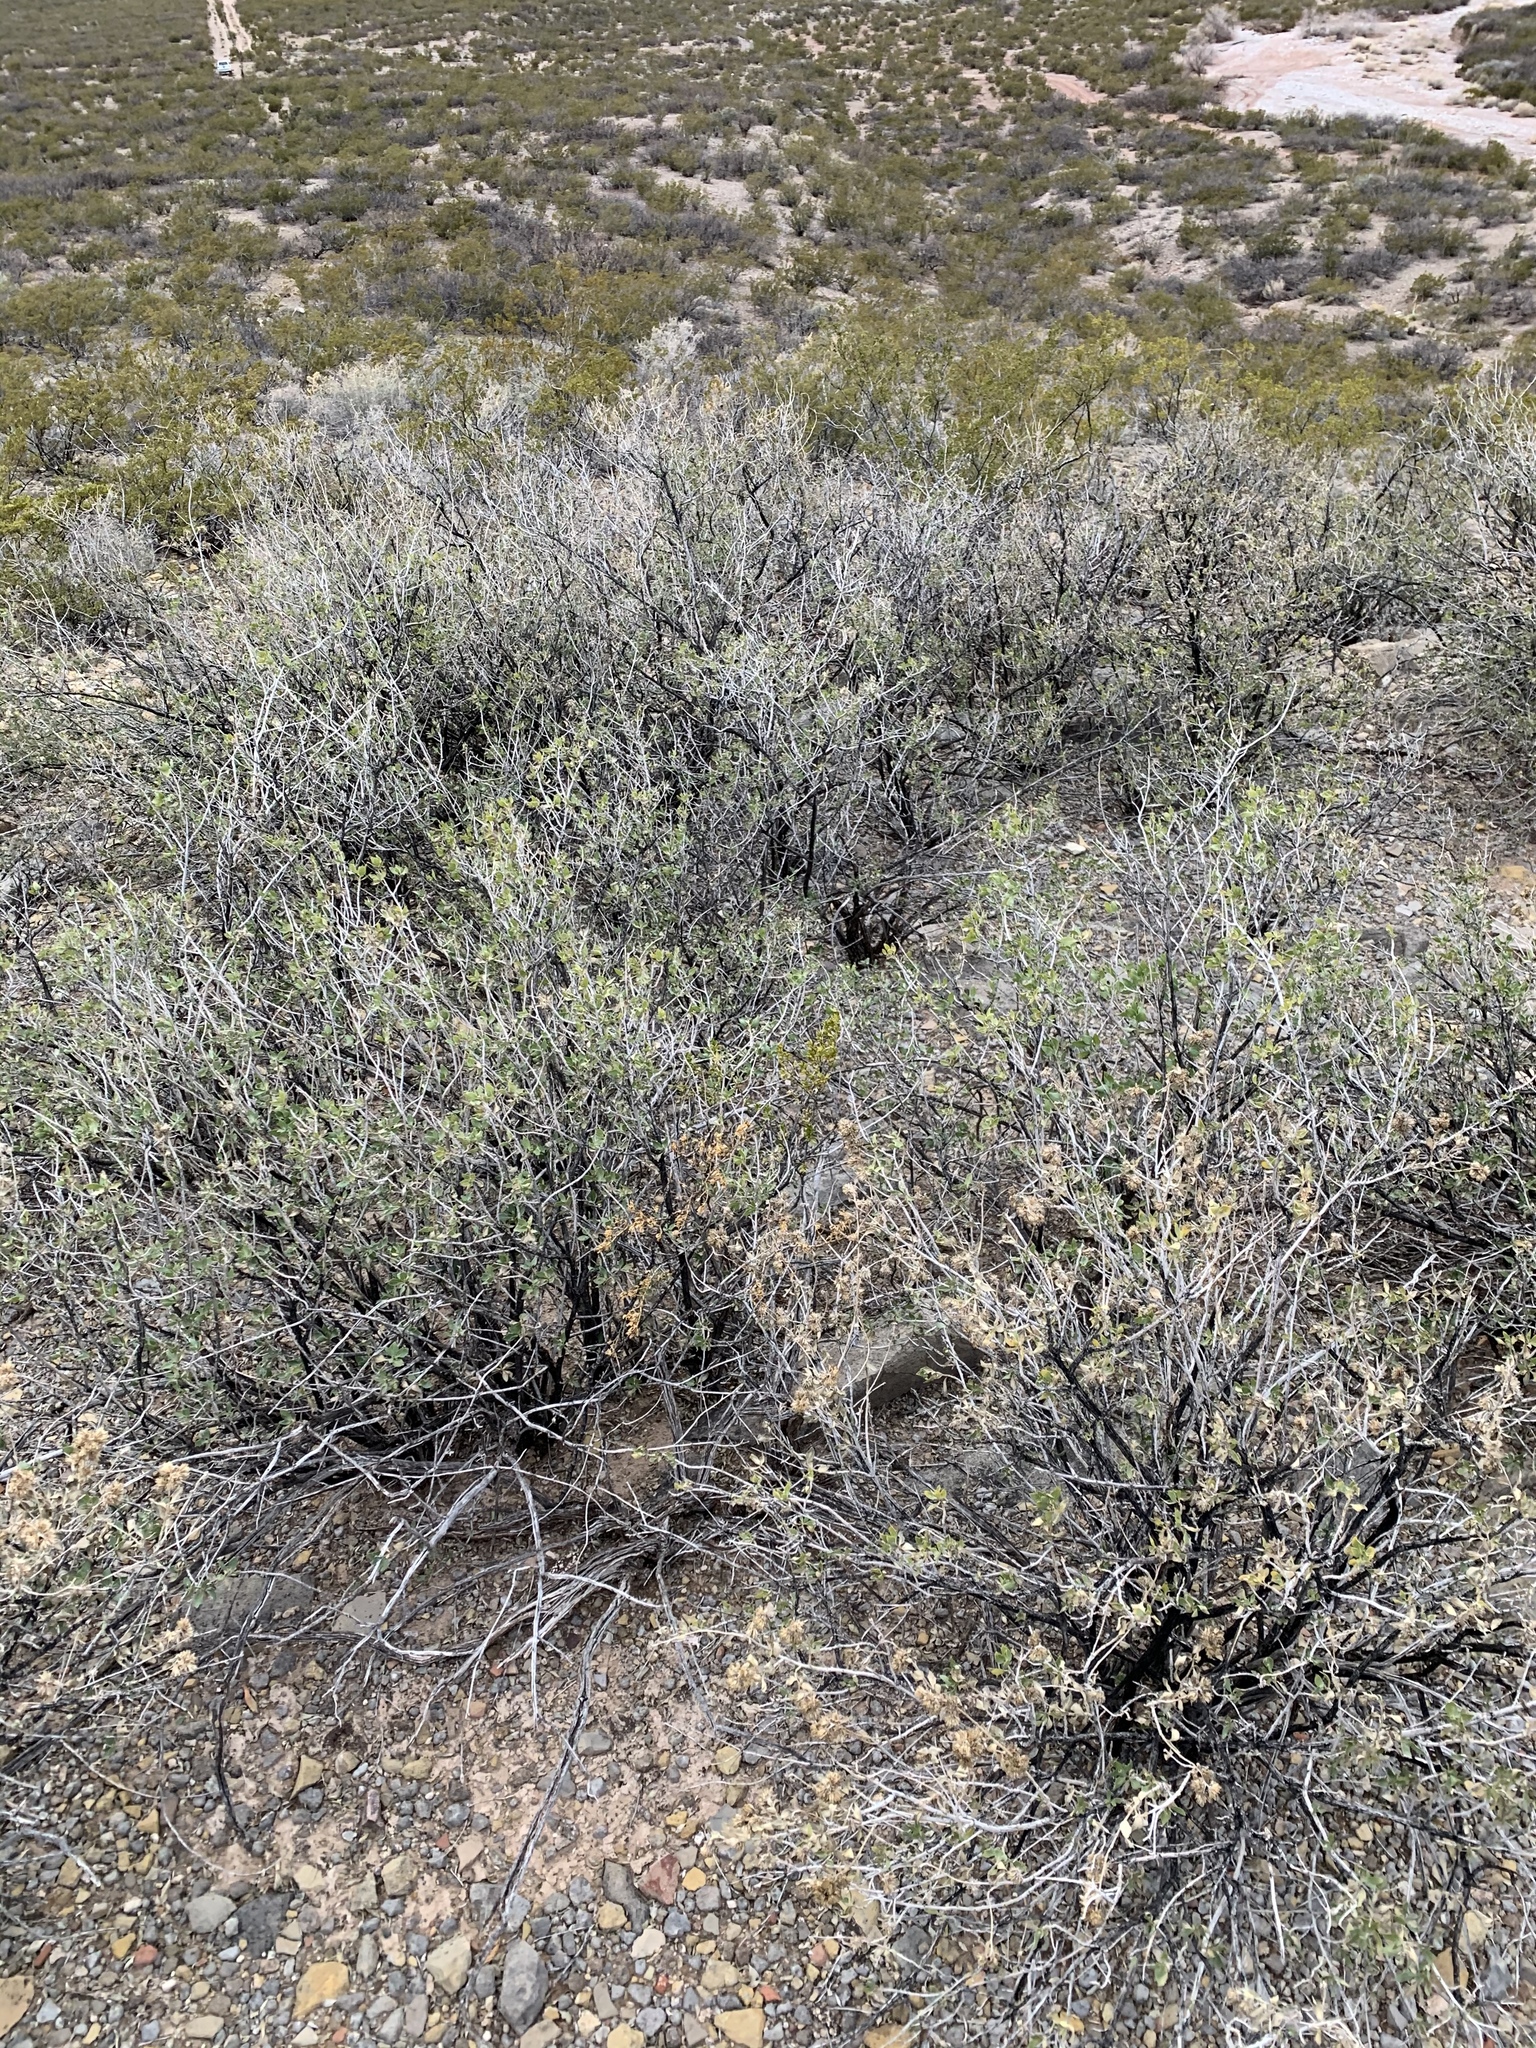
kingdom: Plantae
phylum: Tracheophyta
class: Magnoliopsida
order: Asterales
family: Asteraceae
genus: Flourensia
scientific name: Flourensia cernua
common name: Varnishbush
